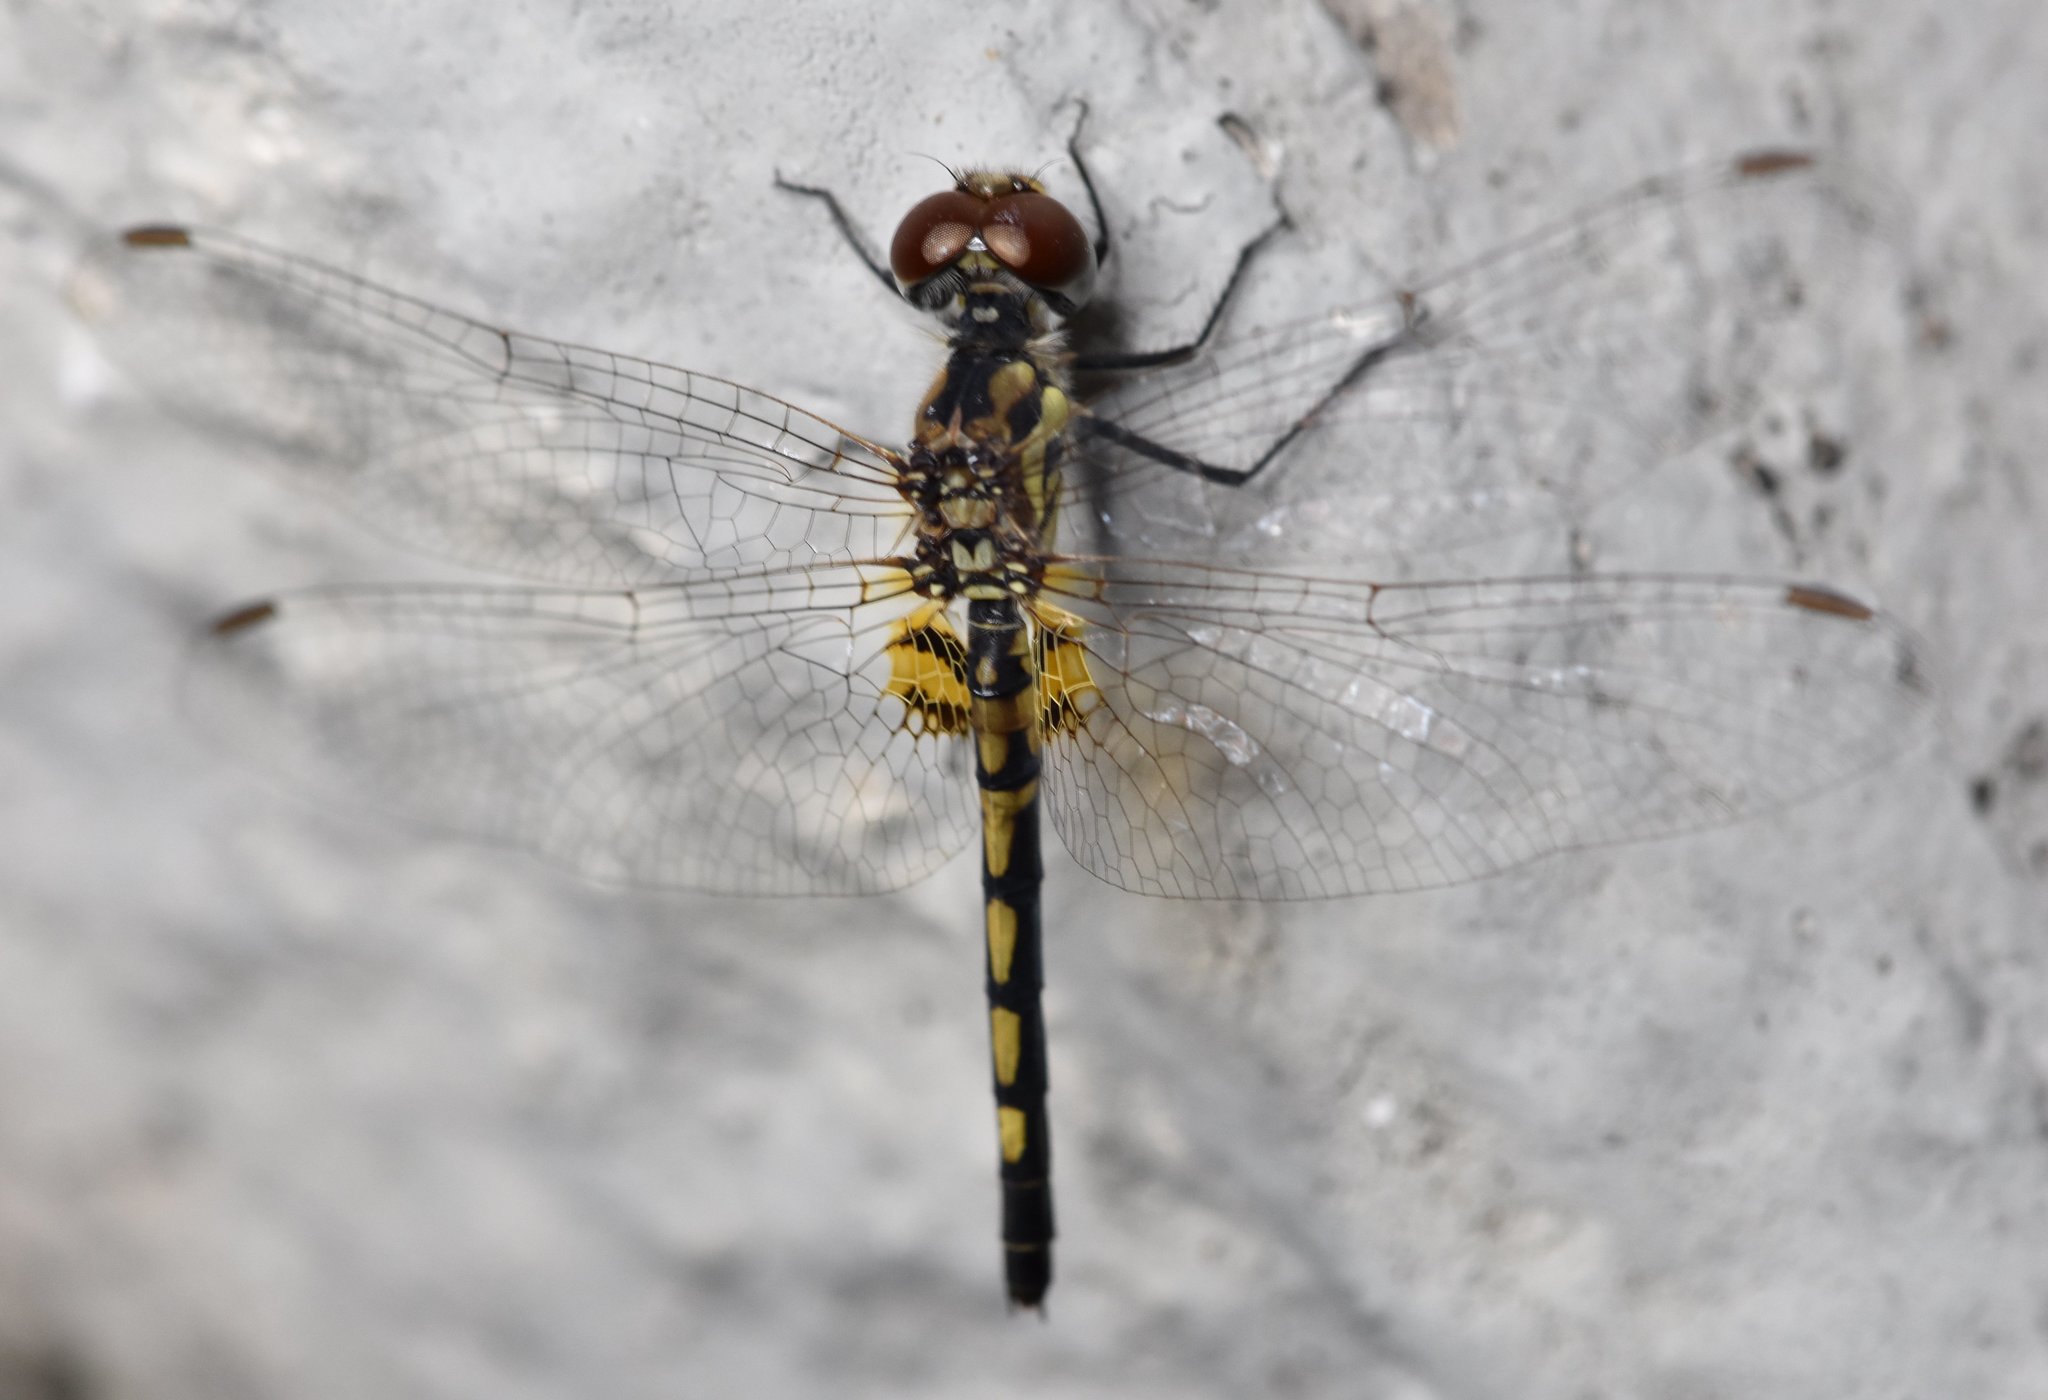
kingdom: Animalia
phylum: Arthropoda
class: Insecta
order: Odonata
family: Libellulidae
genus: Celithemis
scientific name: Celithemis ornata
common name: Ornate pennant
